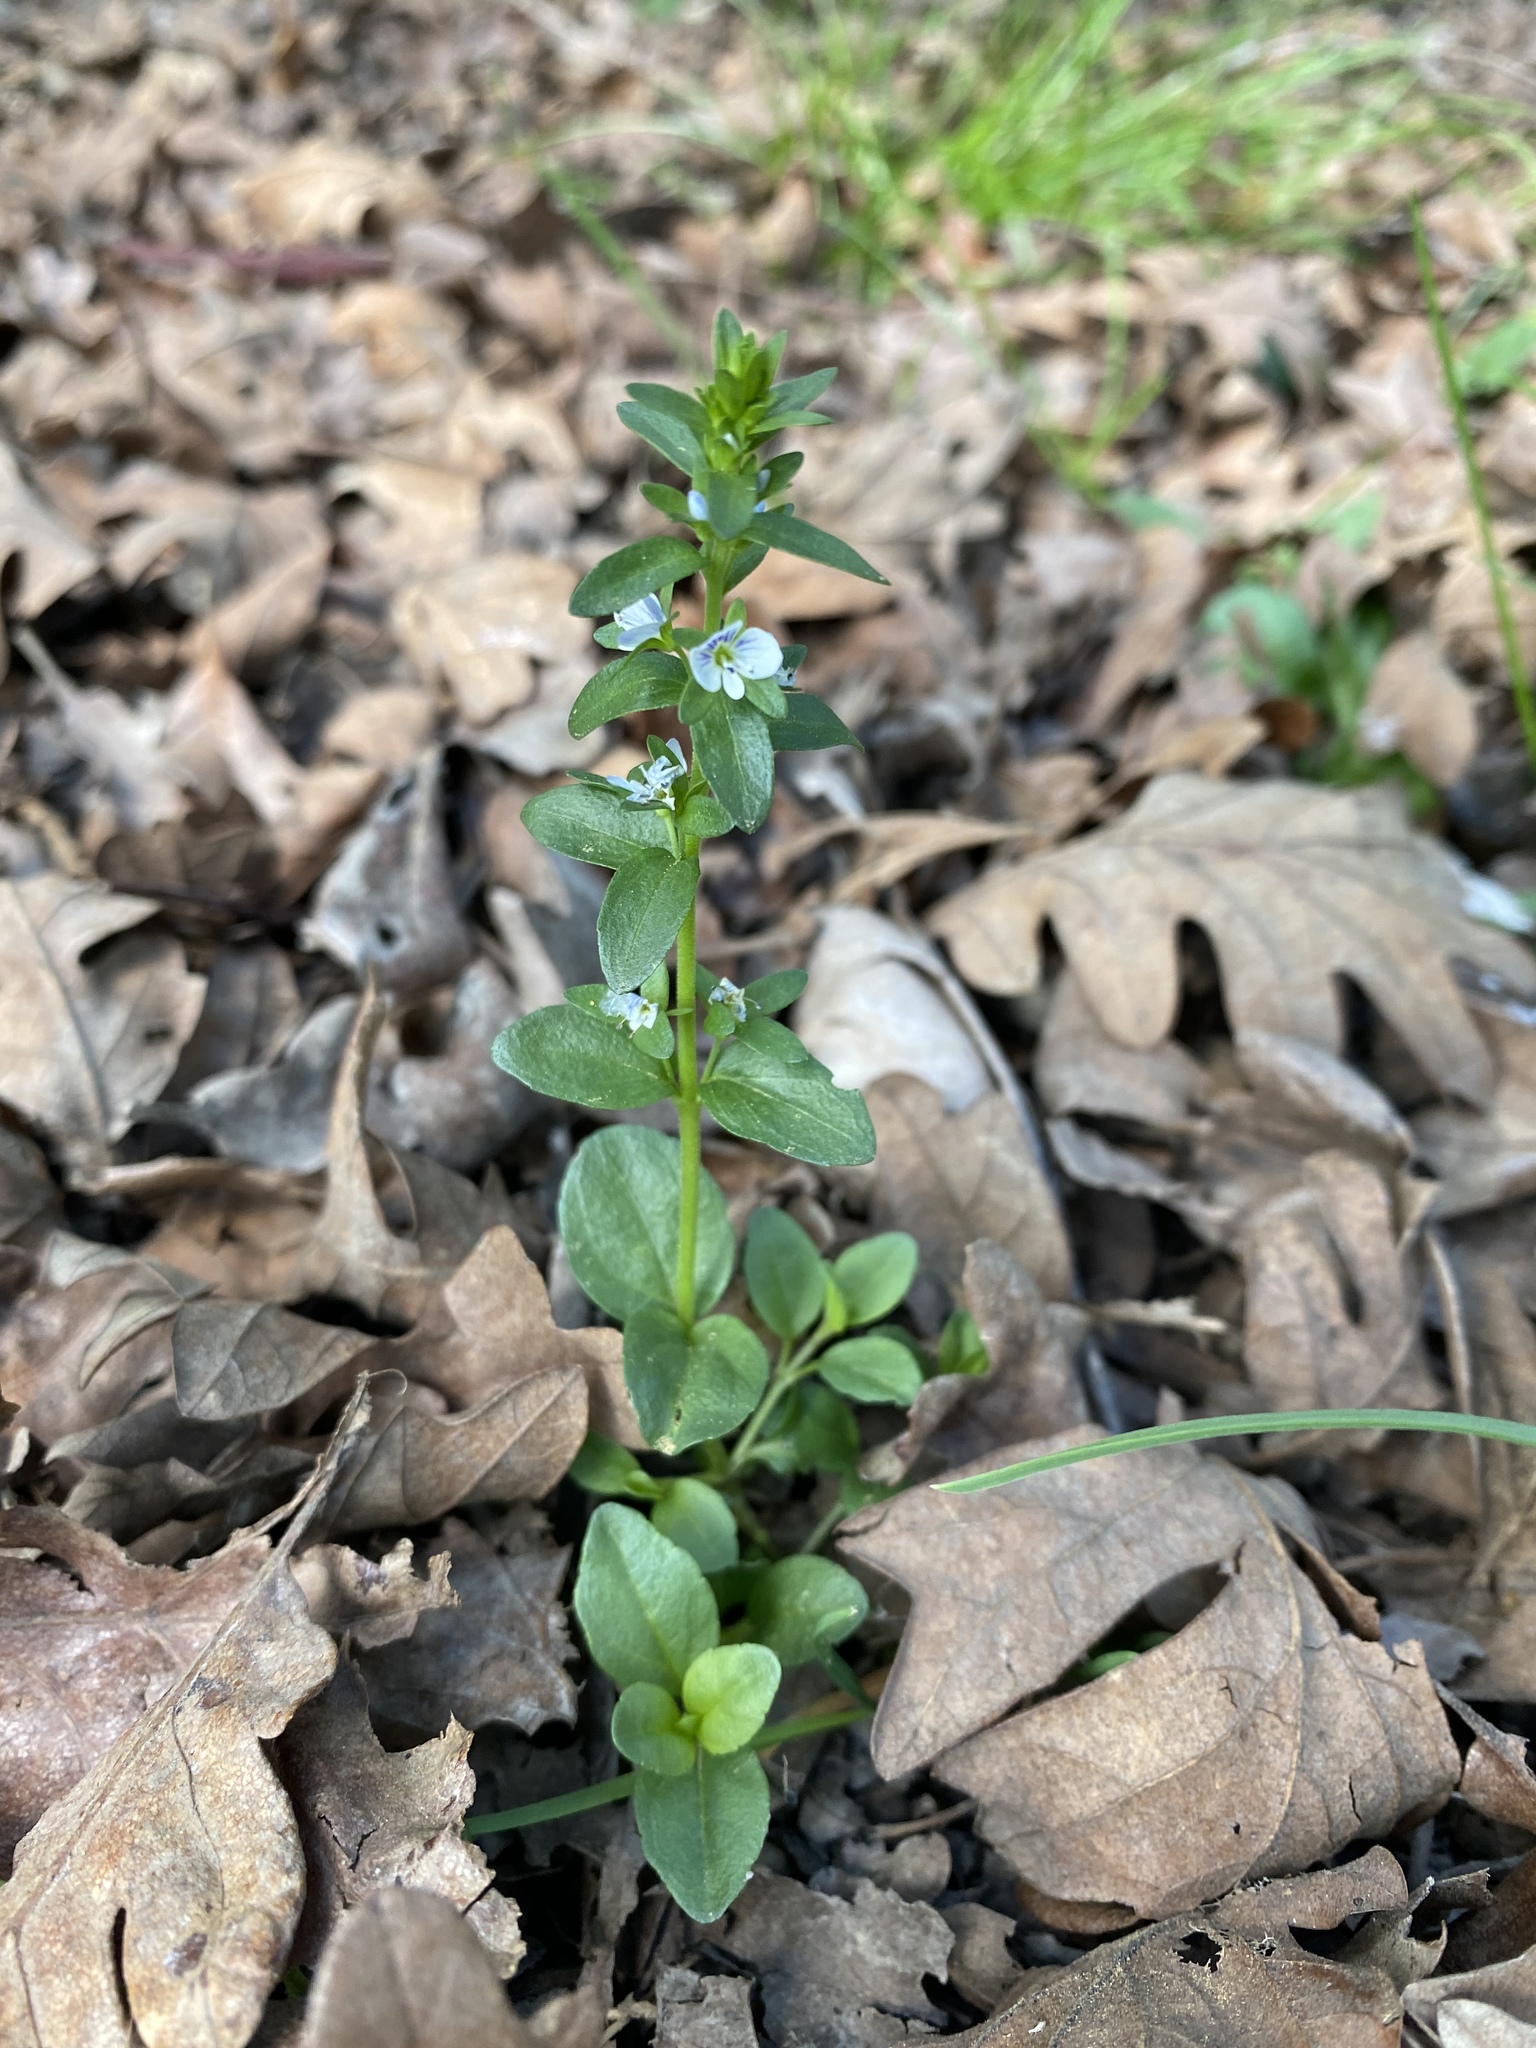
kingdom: Plantae
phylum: Tracheophyta
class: Magnoliopsida
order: Lamiales
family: Plantaginaceae
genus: Veronica
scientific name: Veronica serpyllifolia
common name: Thyme-leaved speedwell
